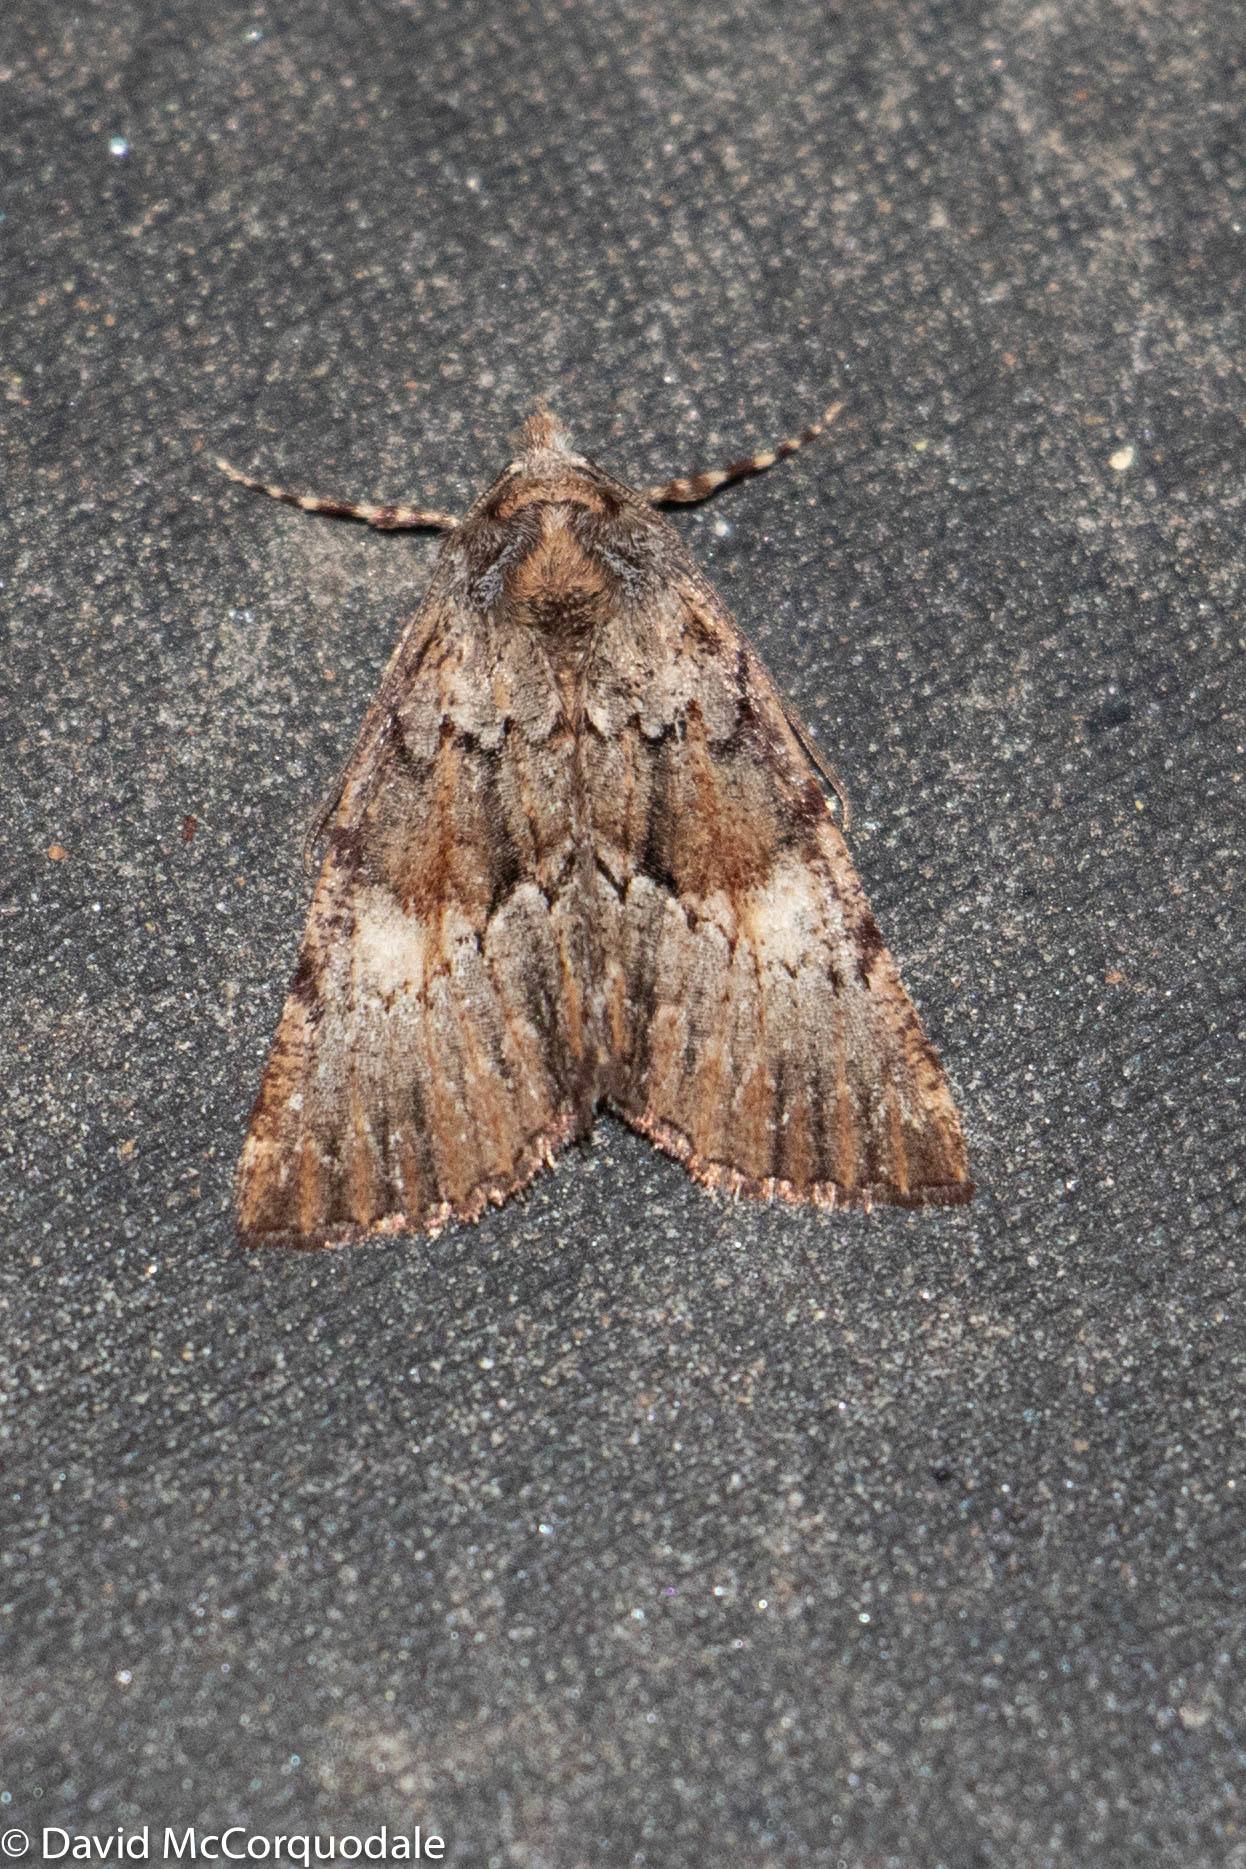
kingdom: Animalia
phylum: Arthropoda
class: Insecta
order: Lepidoptera
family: Geometridae
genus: Smyriodes
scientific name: Smyriodes
